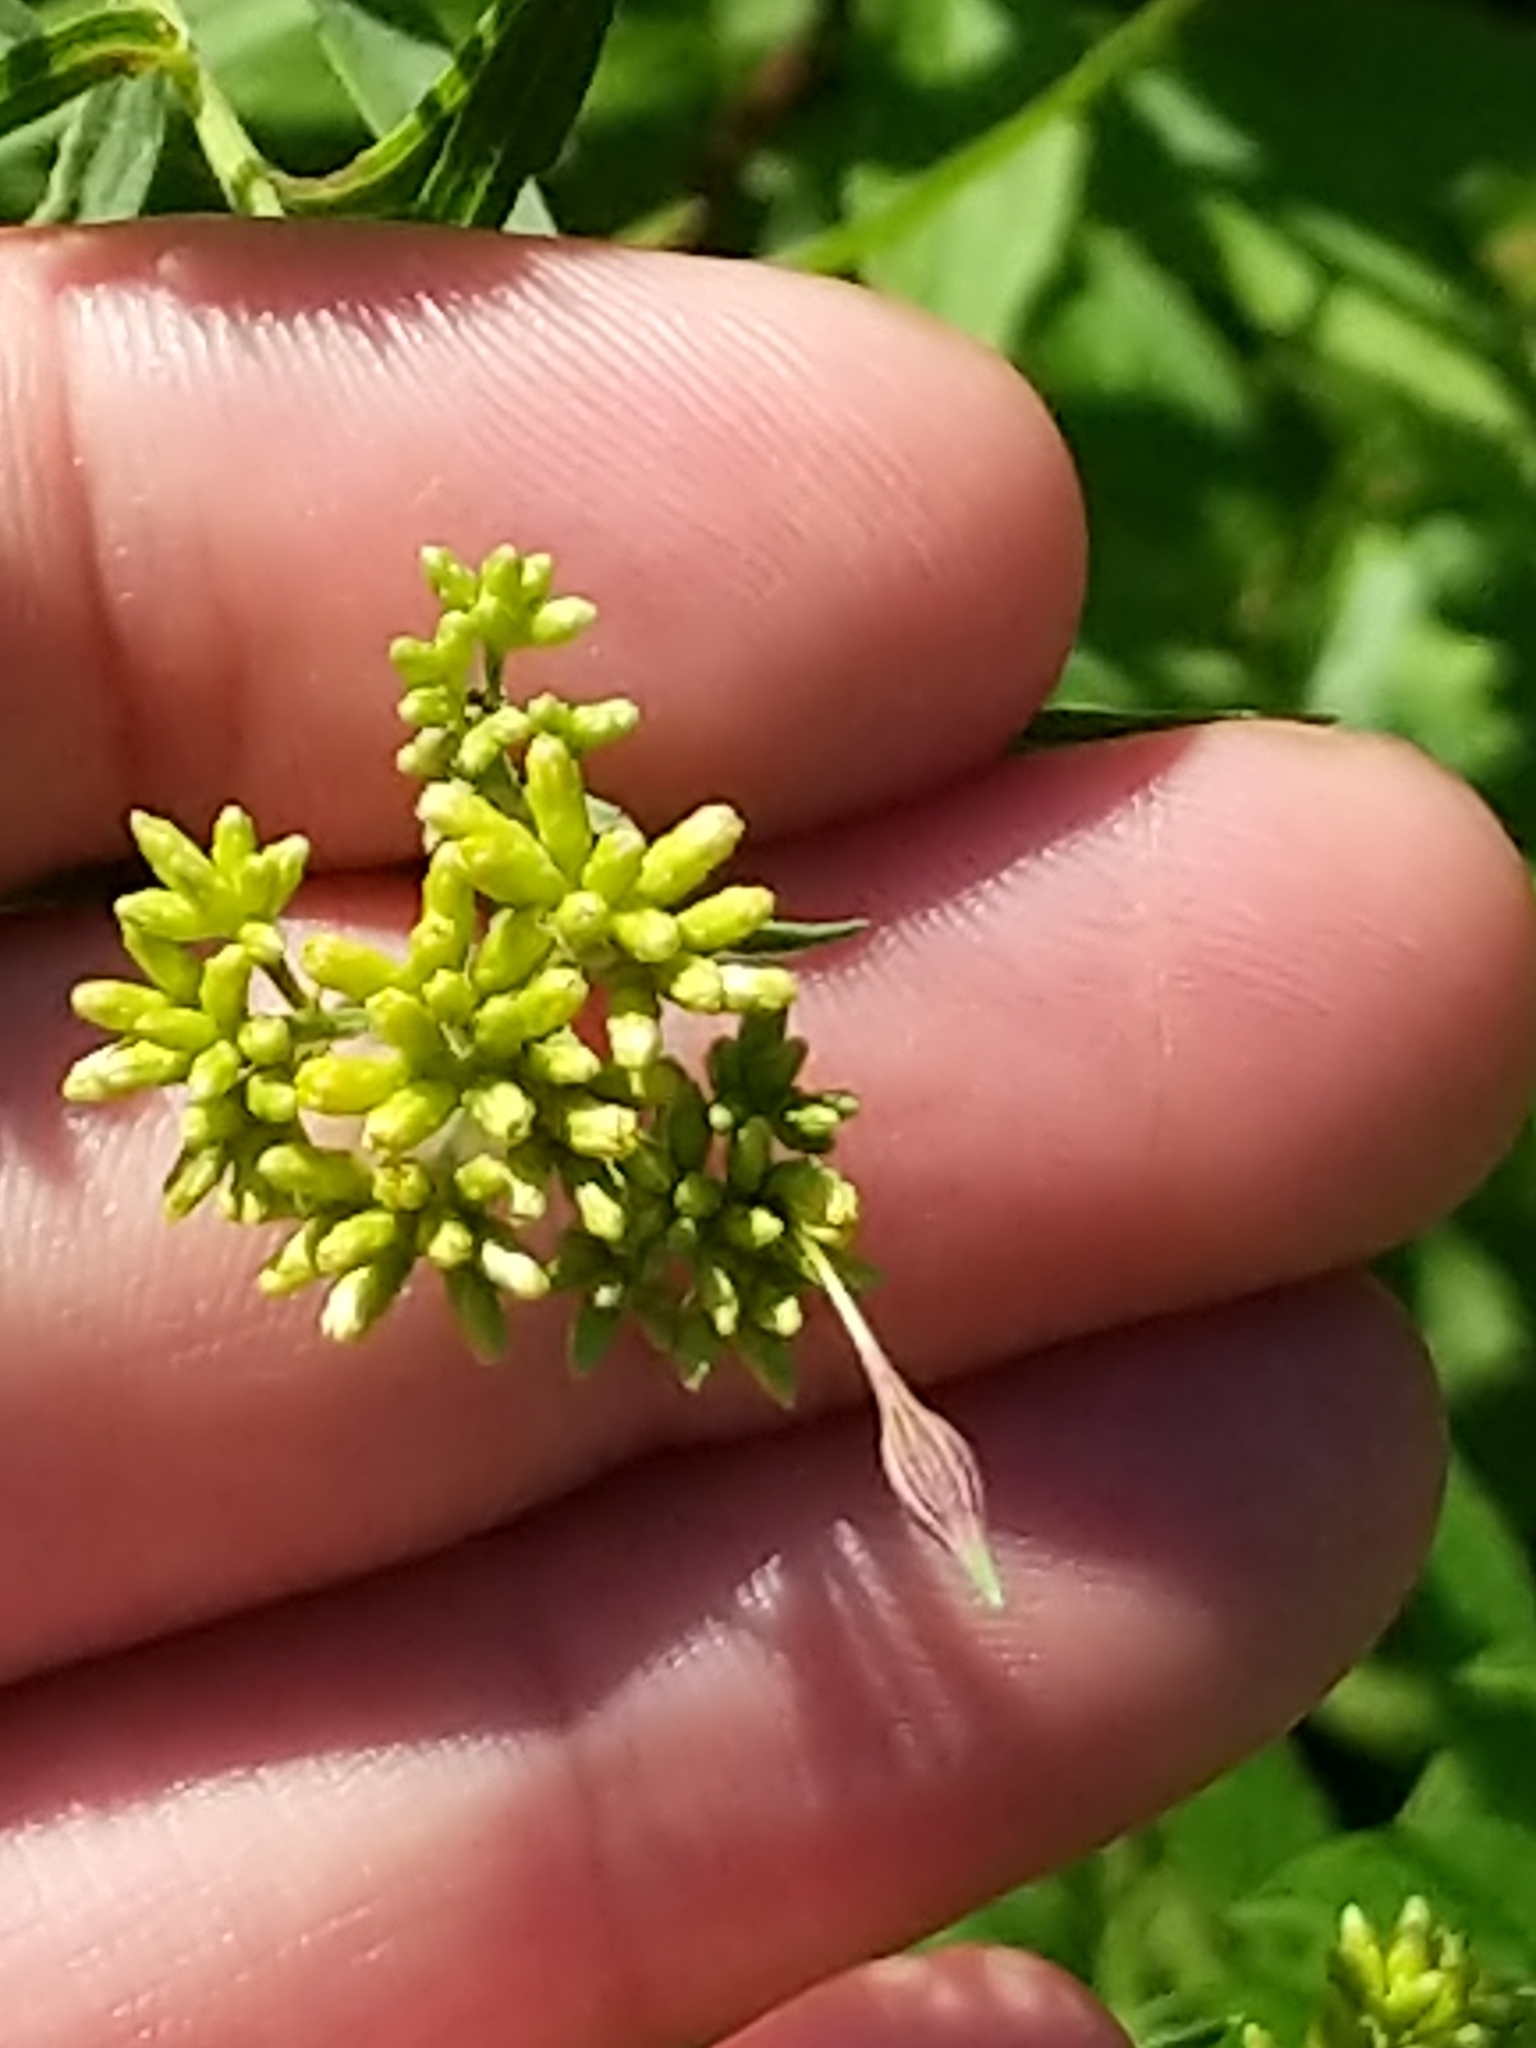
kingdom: Animalia
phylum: Arthropoda
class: Insecta
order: Diptera
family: Cecidomyiidae
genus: Rhopalomyia
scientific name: Rhopalomyia pedicellata
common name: Goldentop pedicellate gall midge
